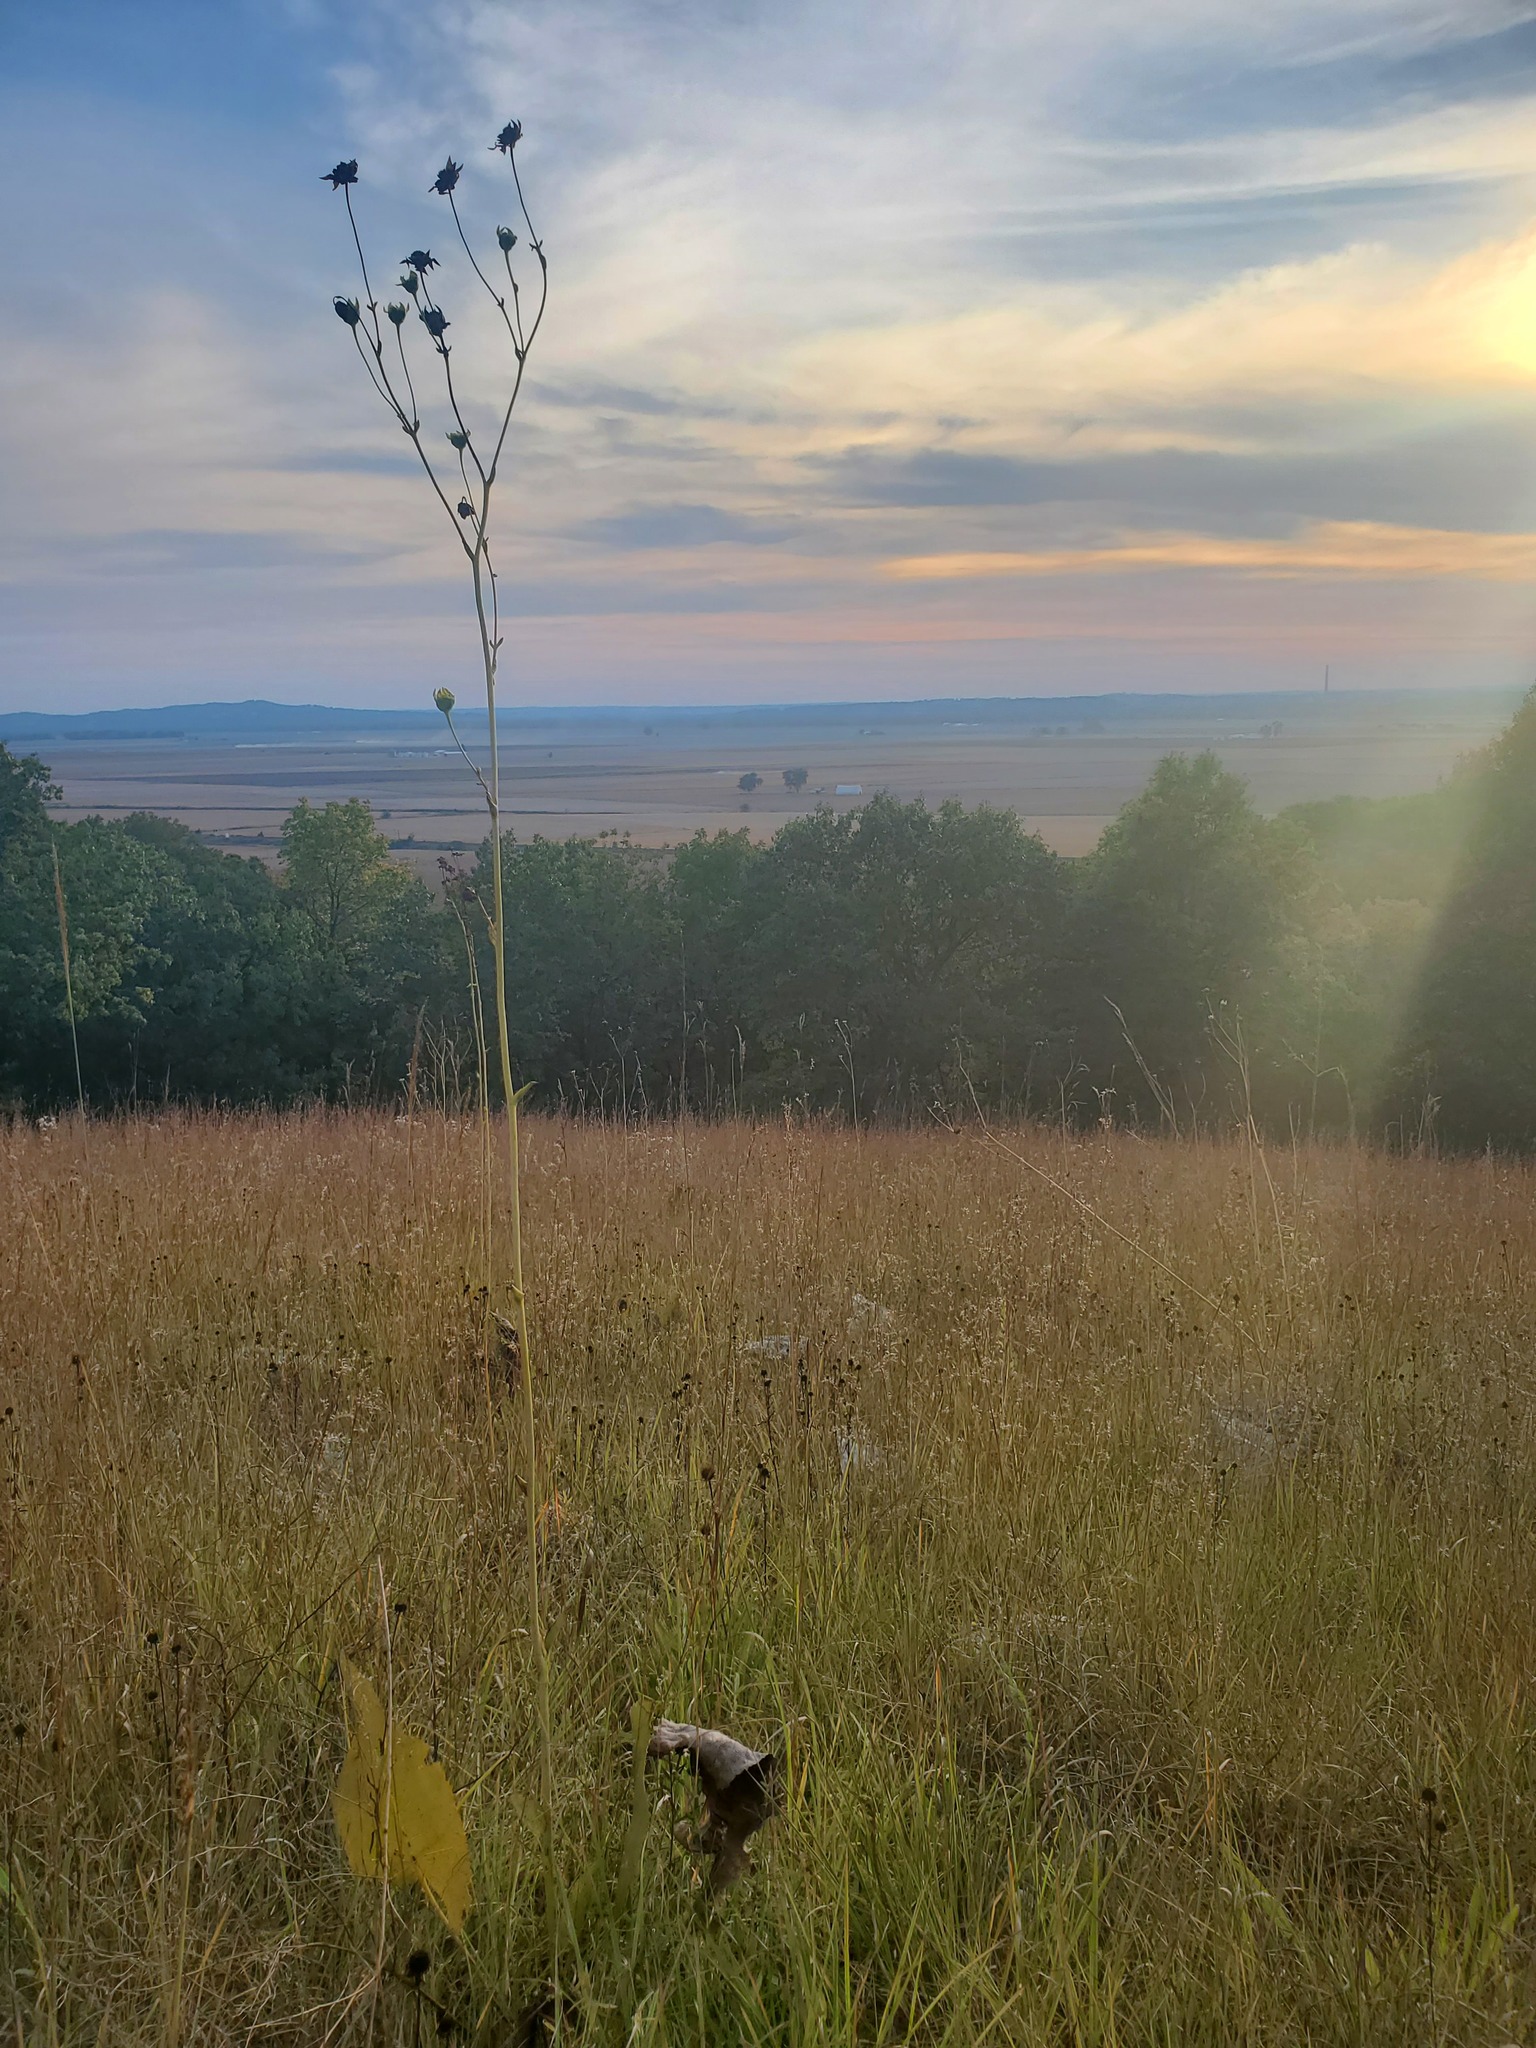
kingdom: Plantae
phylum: Tracheophyta
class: Magnoliopsida
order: Asterales
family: Asteraceae
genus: Silphium
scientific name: Silphium terebinthinaceum
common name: Basal-leaf rosinweed
